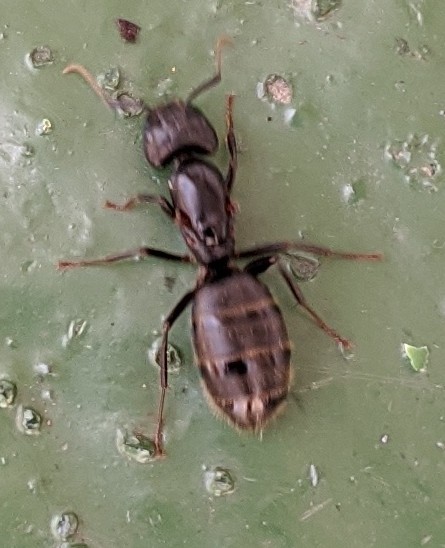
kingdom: Animalia
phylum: Arthropoda
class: Insecta
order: Hymenoptera
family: Formicidae
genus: Camponotus
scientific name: Camponotus pennsylvanicus
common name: Black carpenter ant
